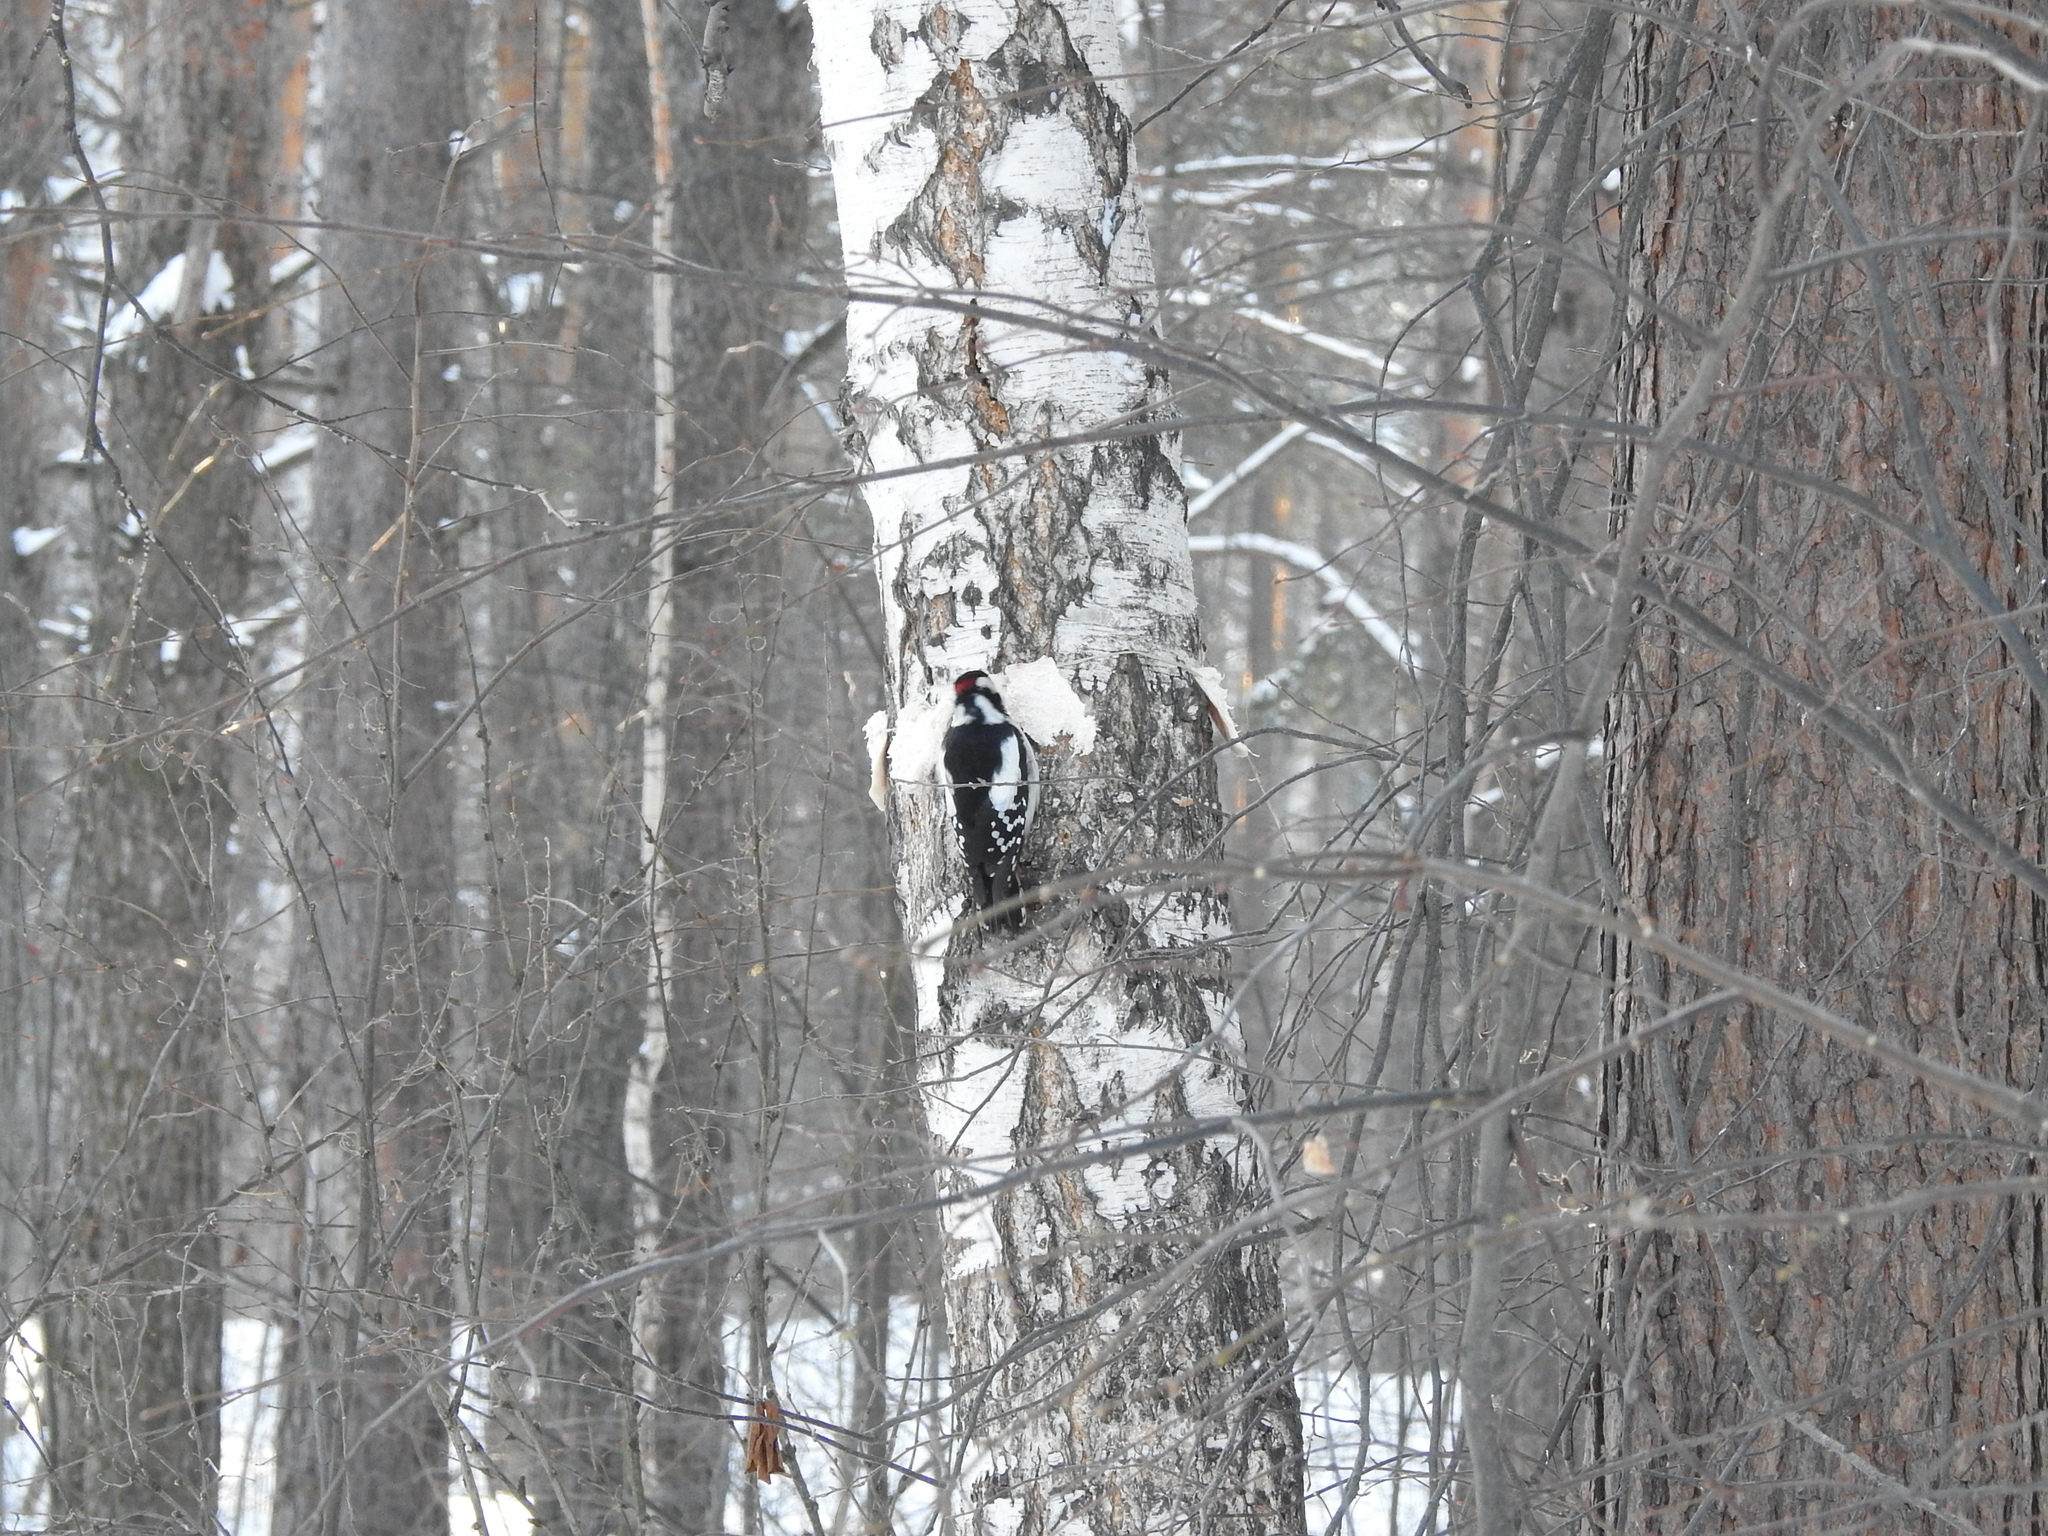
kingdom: Animalia
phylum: Chordata
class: Aves
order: Piciformes
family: Picidae
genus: Dendrocopos
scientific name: Dendrocopos major
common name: Great spotted woodpecker
